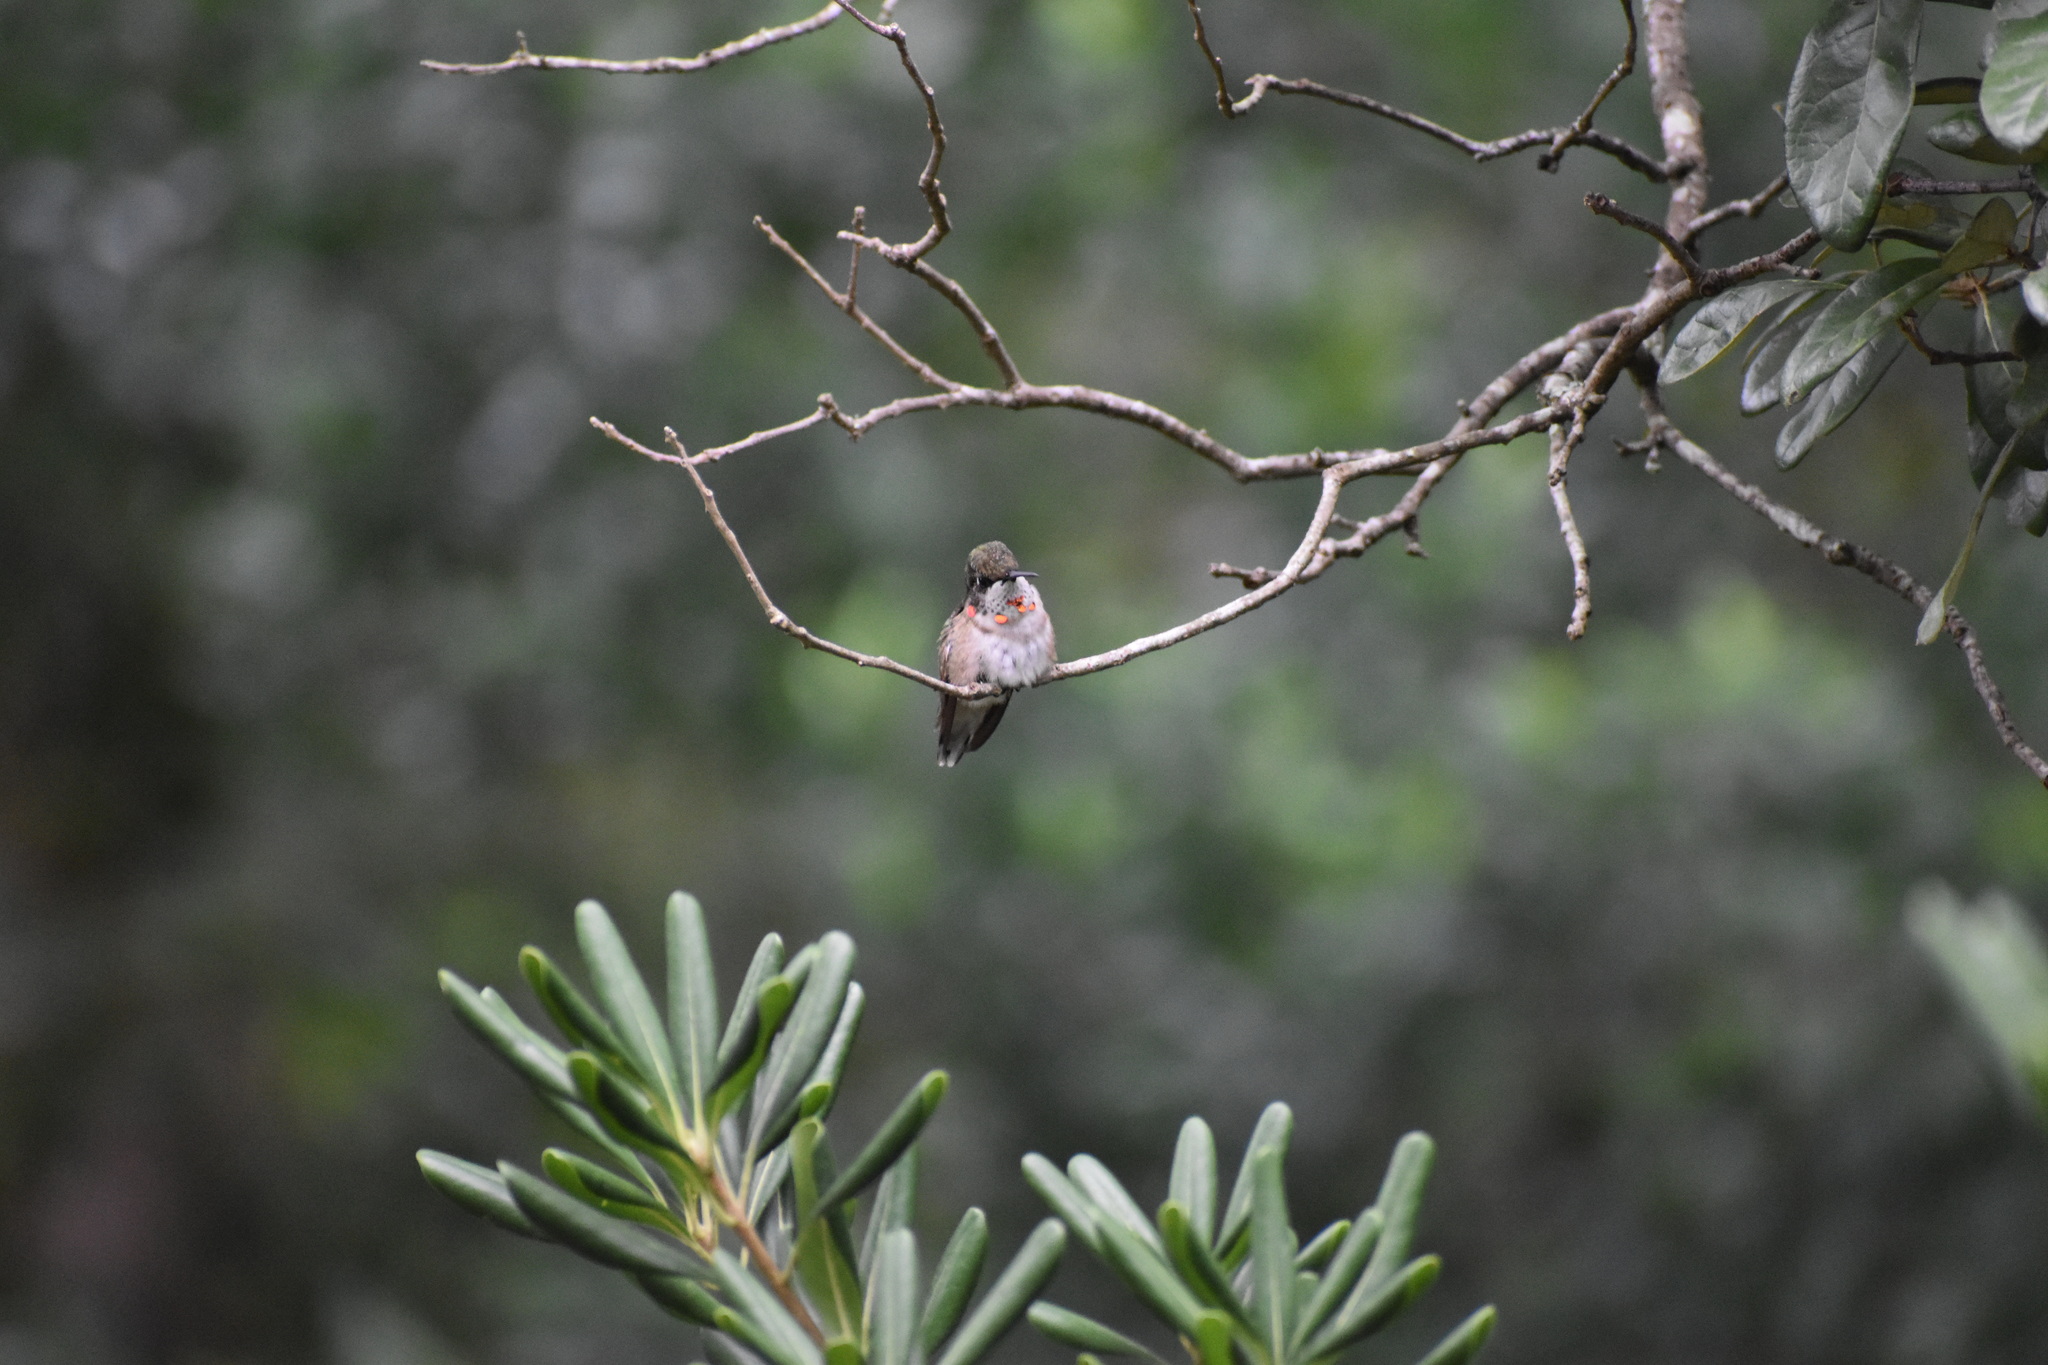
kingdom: Animalia
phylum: Chordata
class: Aves
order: Apodiformes
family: Trochilidae
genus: Archilochus
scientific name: Archilochus colubris
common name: Ruby-throated hummingbird
